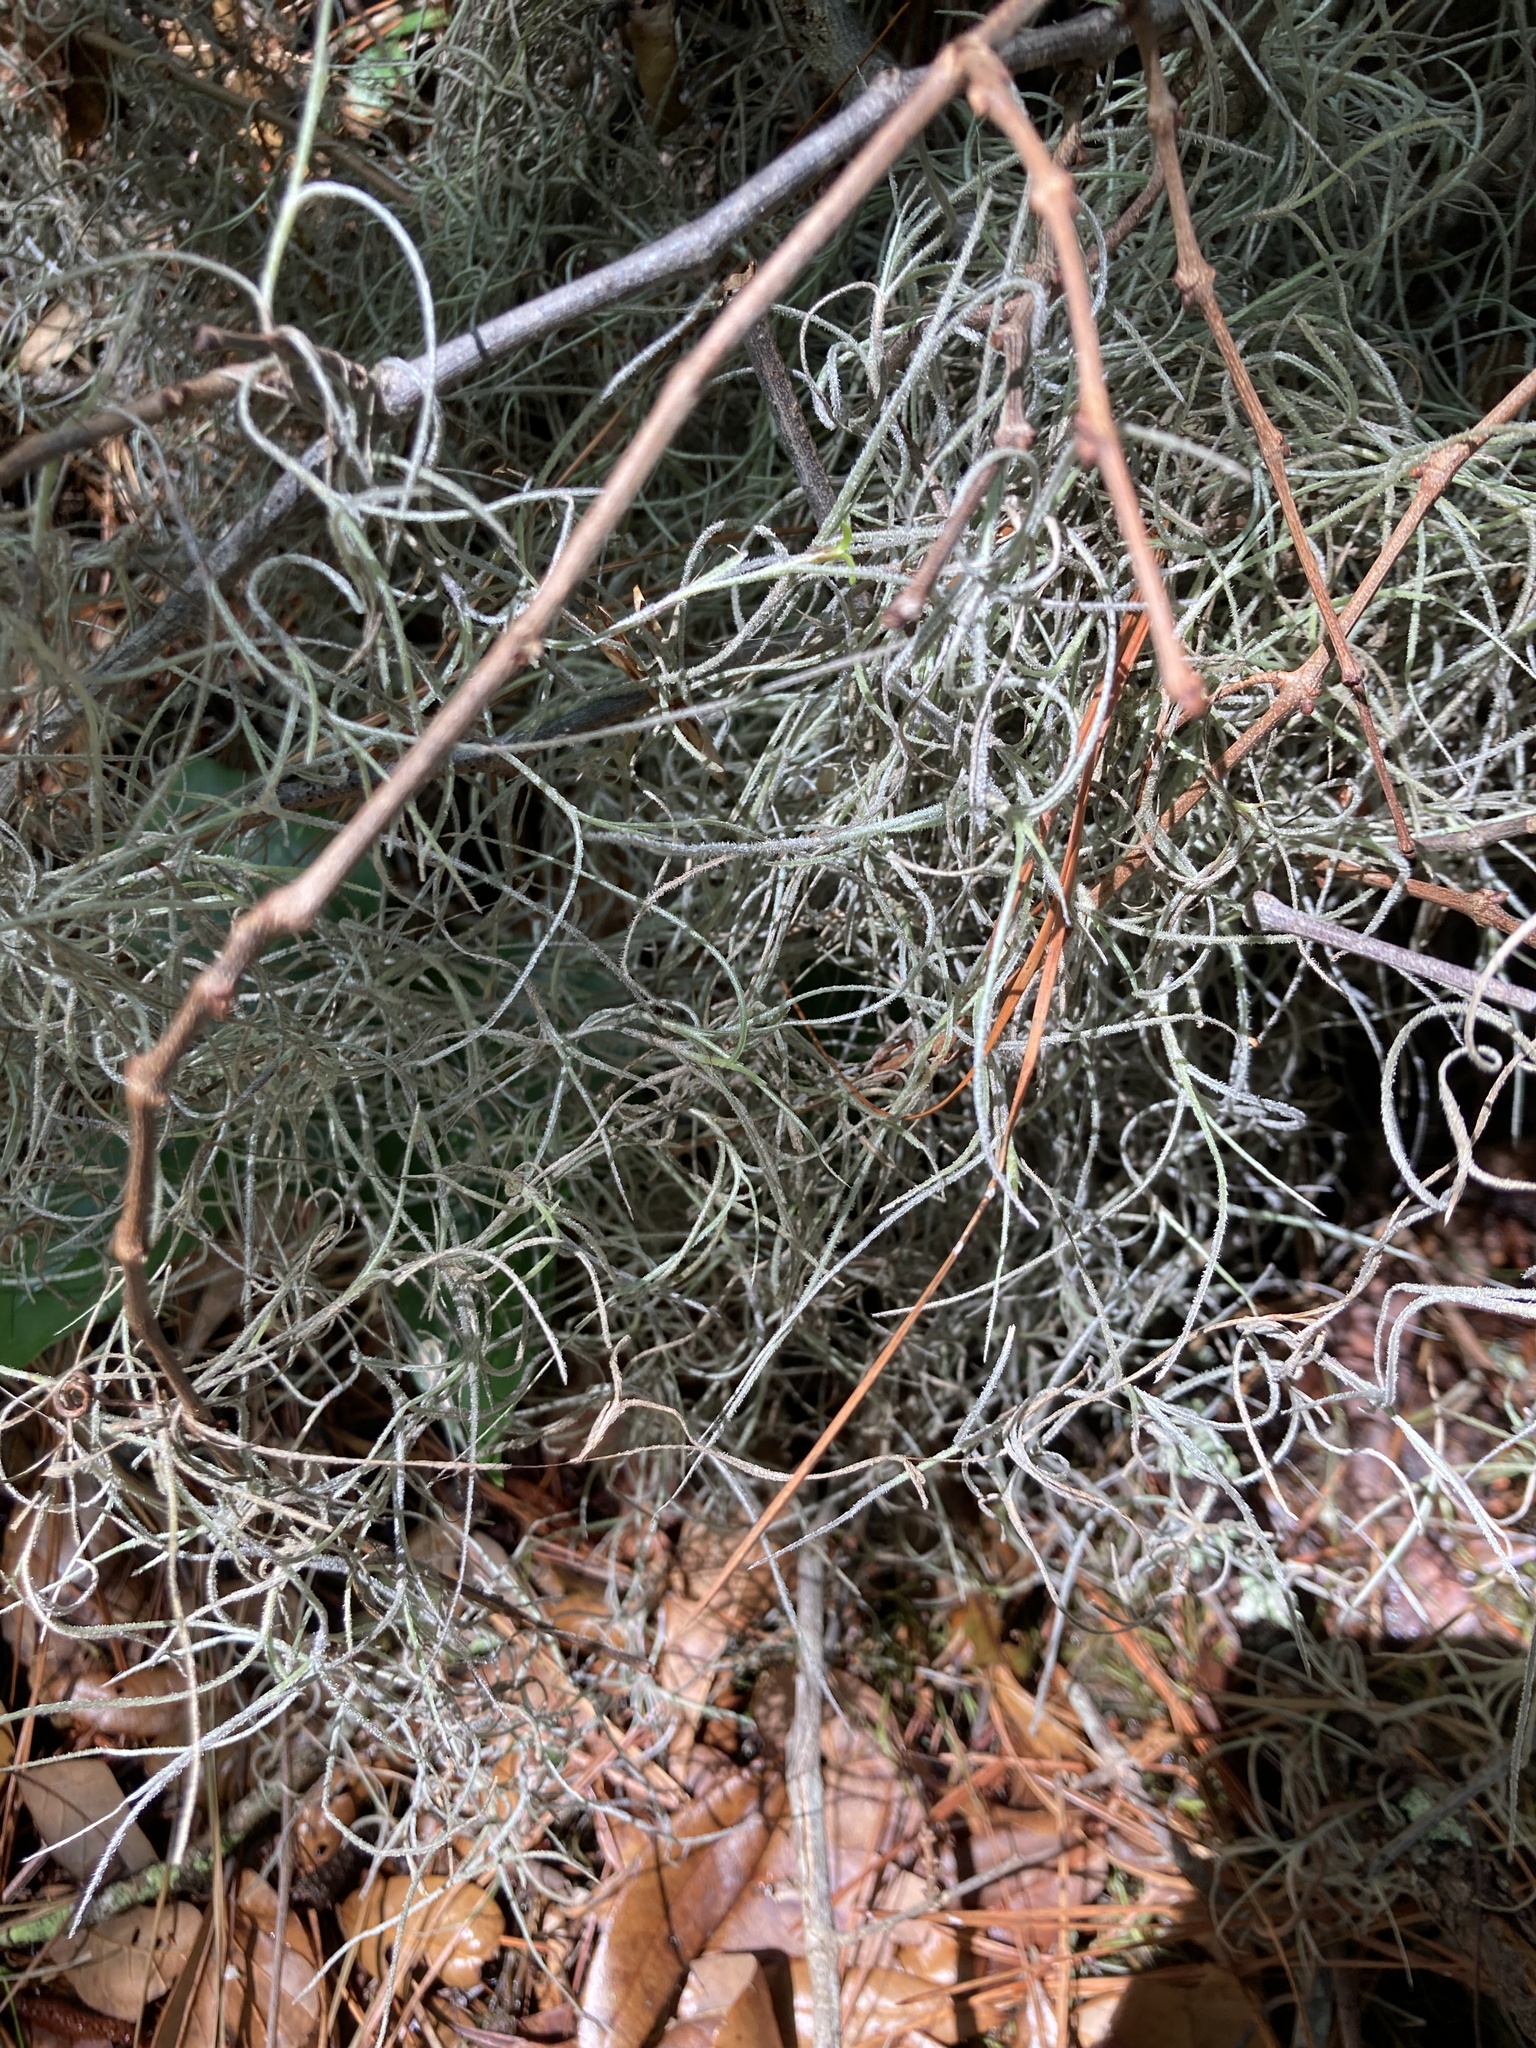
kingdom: Plantae
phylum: Tracheophyta
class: Liliopsida
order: Poales
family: Bromeliaceae
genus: Tillandsia
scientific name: Tillandsia usneoides
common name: Spanish moss
